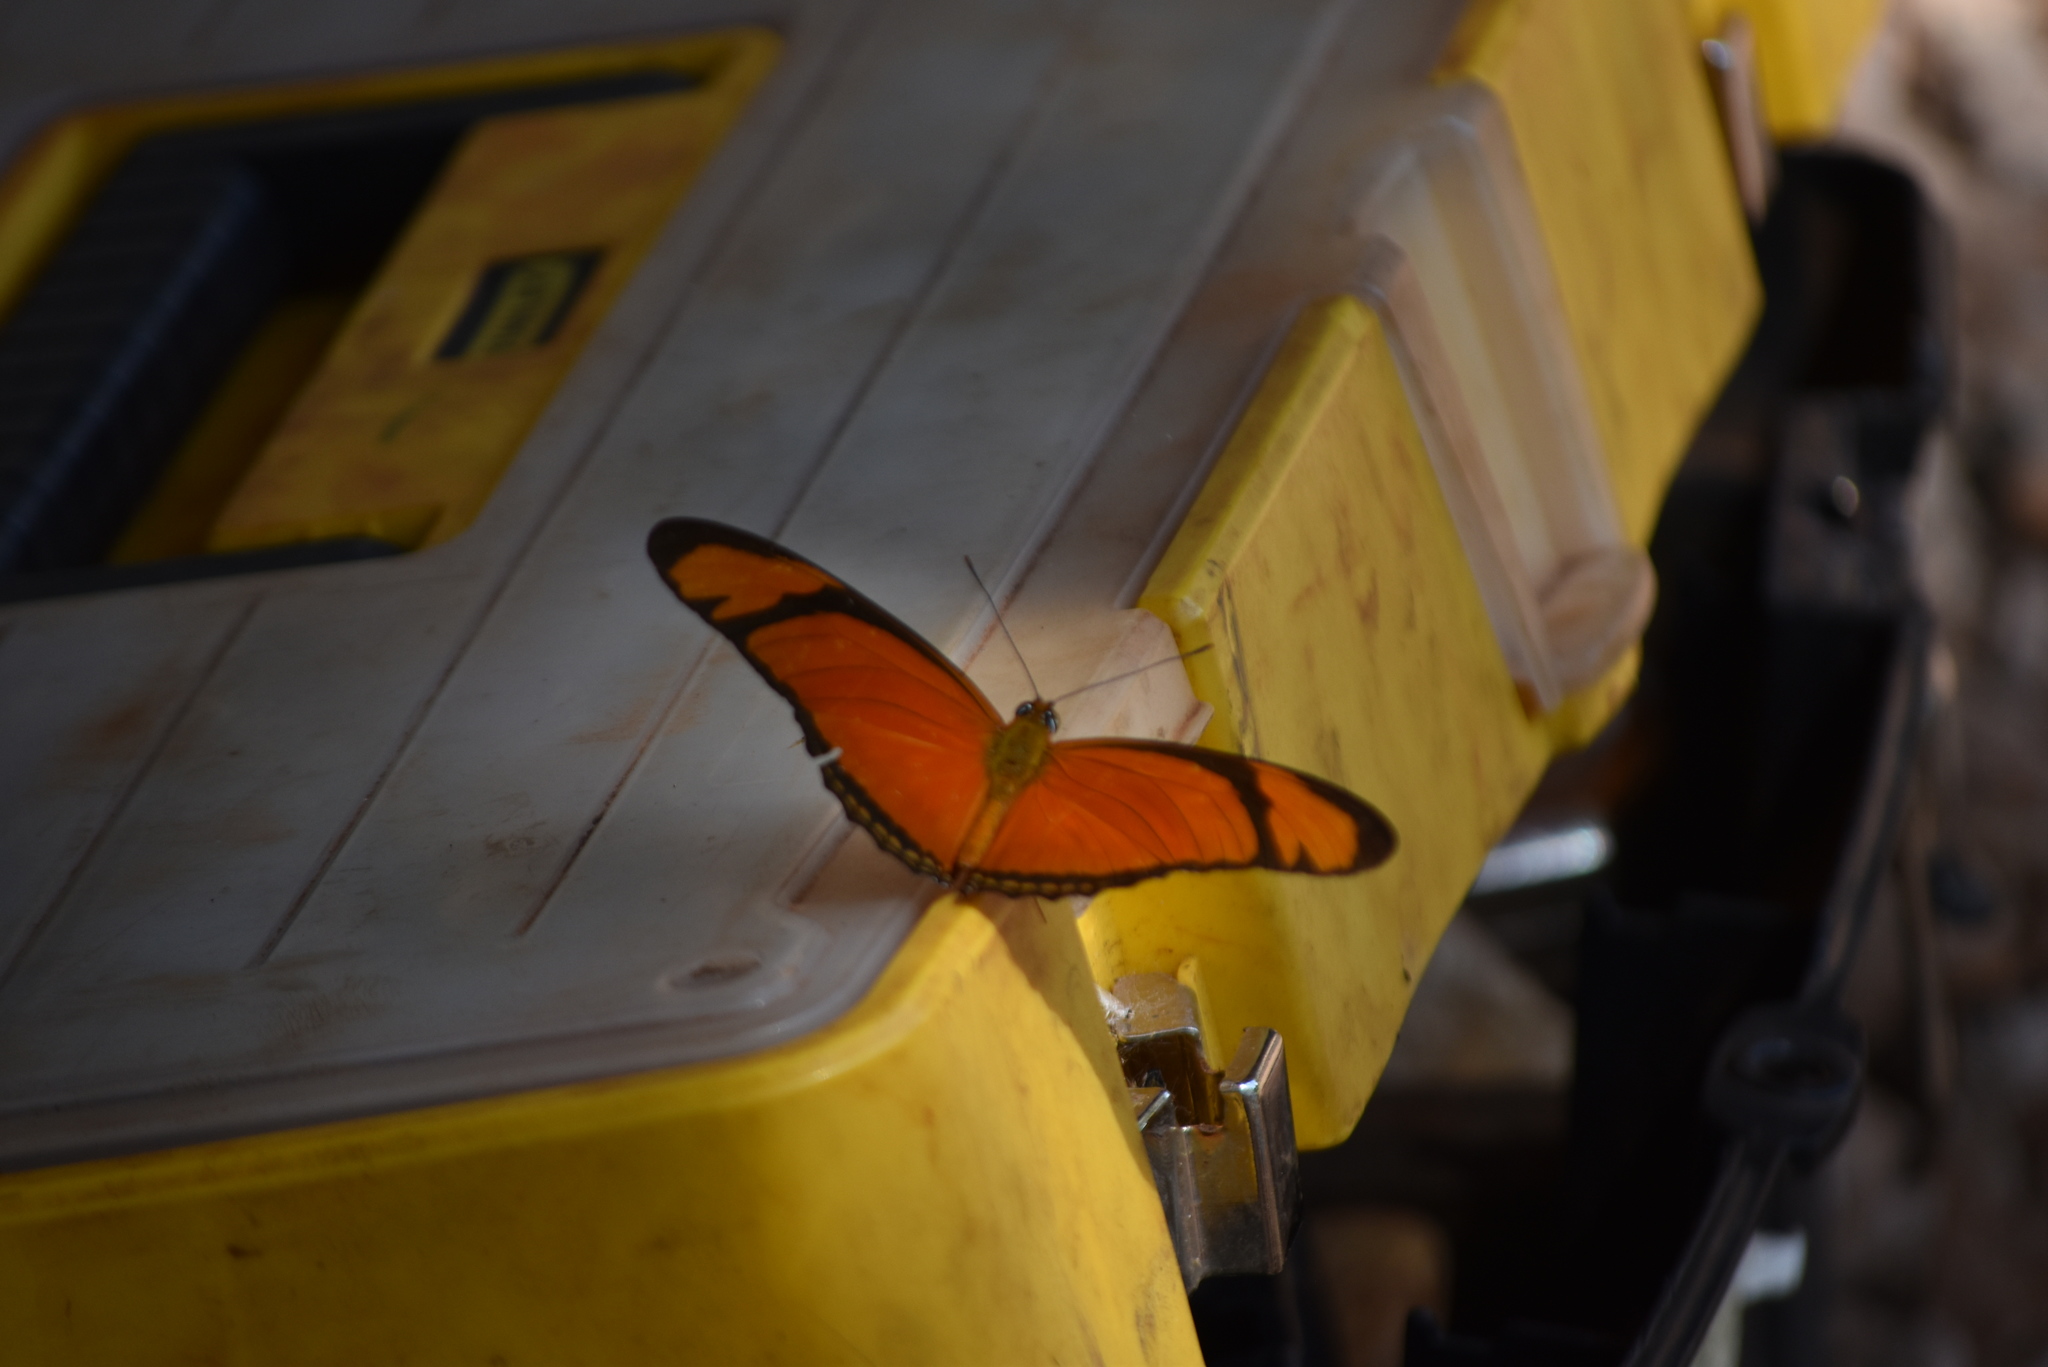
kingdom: Animalia
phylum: Arthropoda
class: Insecta
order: Lepidoptera
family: Nymphalidae
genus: Dryas
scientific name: Dryas iulia
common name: Flambeau
